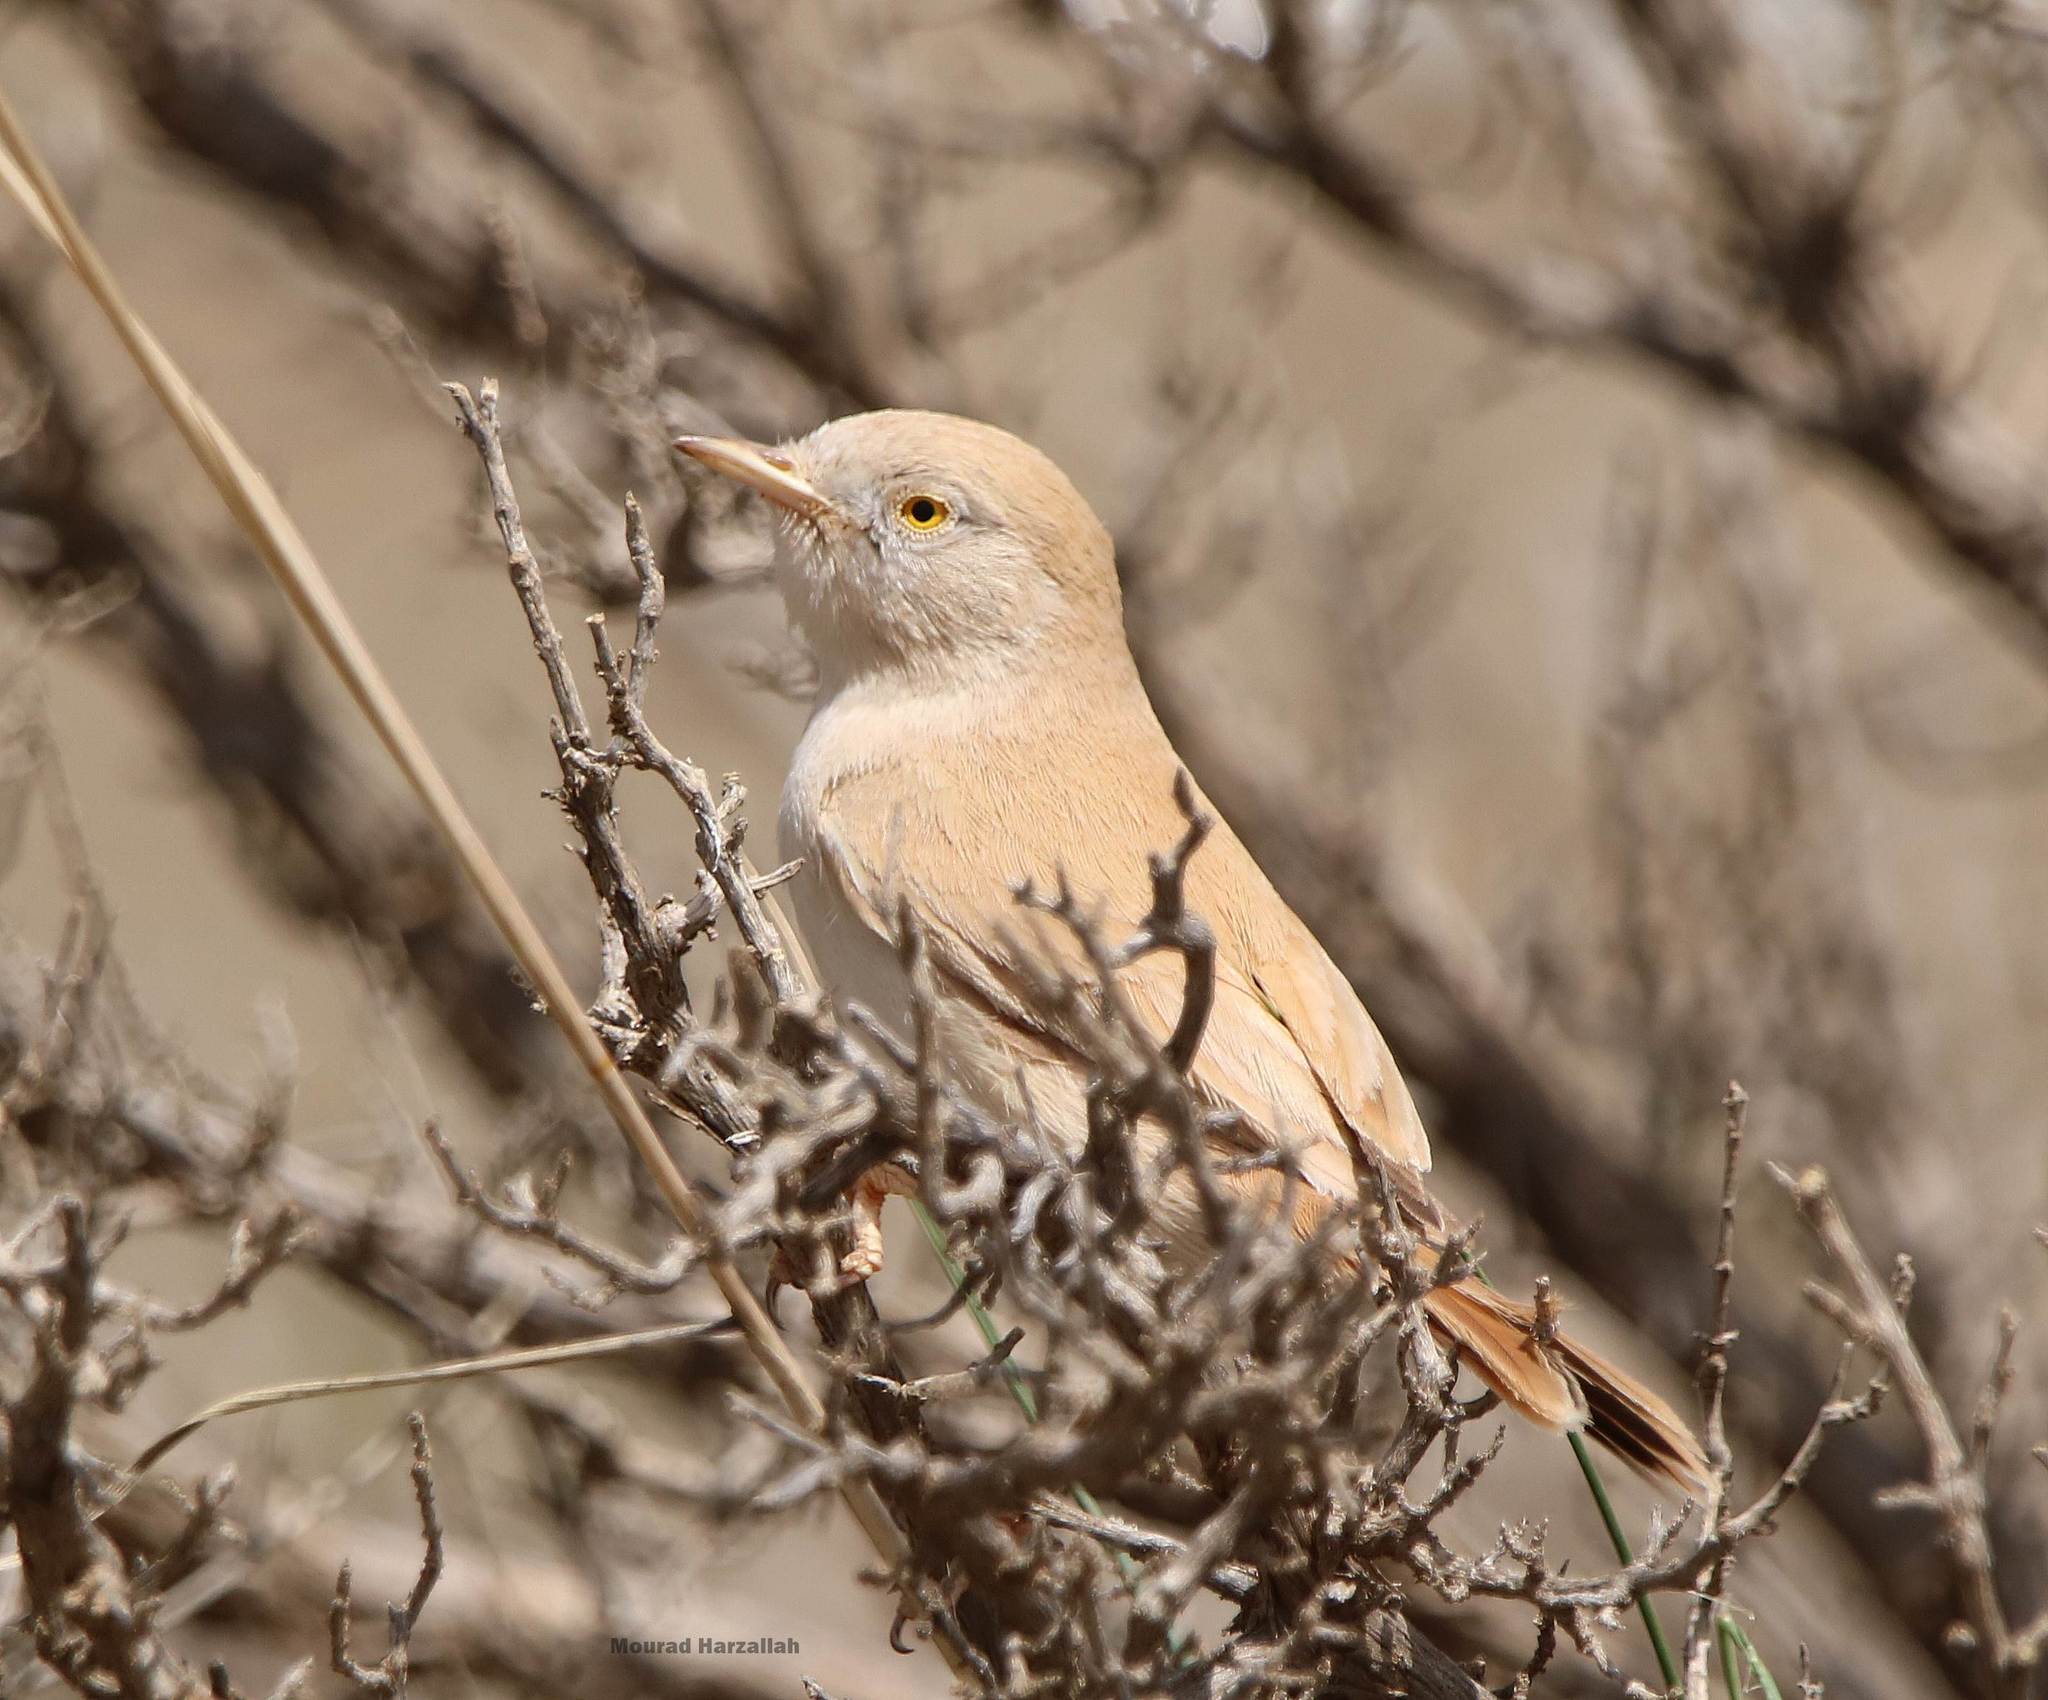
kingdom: Animalia
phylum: Chordata
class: Aves
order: Passeriformes
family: Sylviidae
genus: Sylvia
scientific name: Sylvia deserti
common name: African desert warbler
